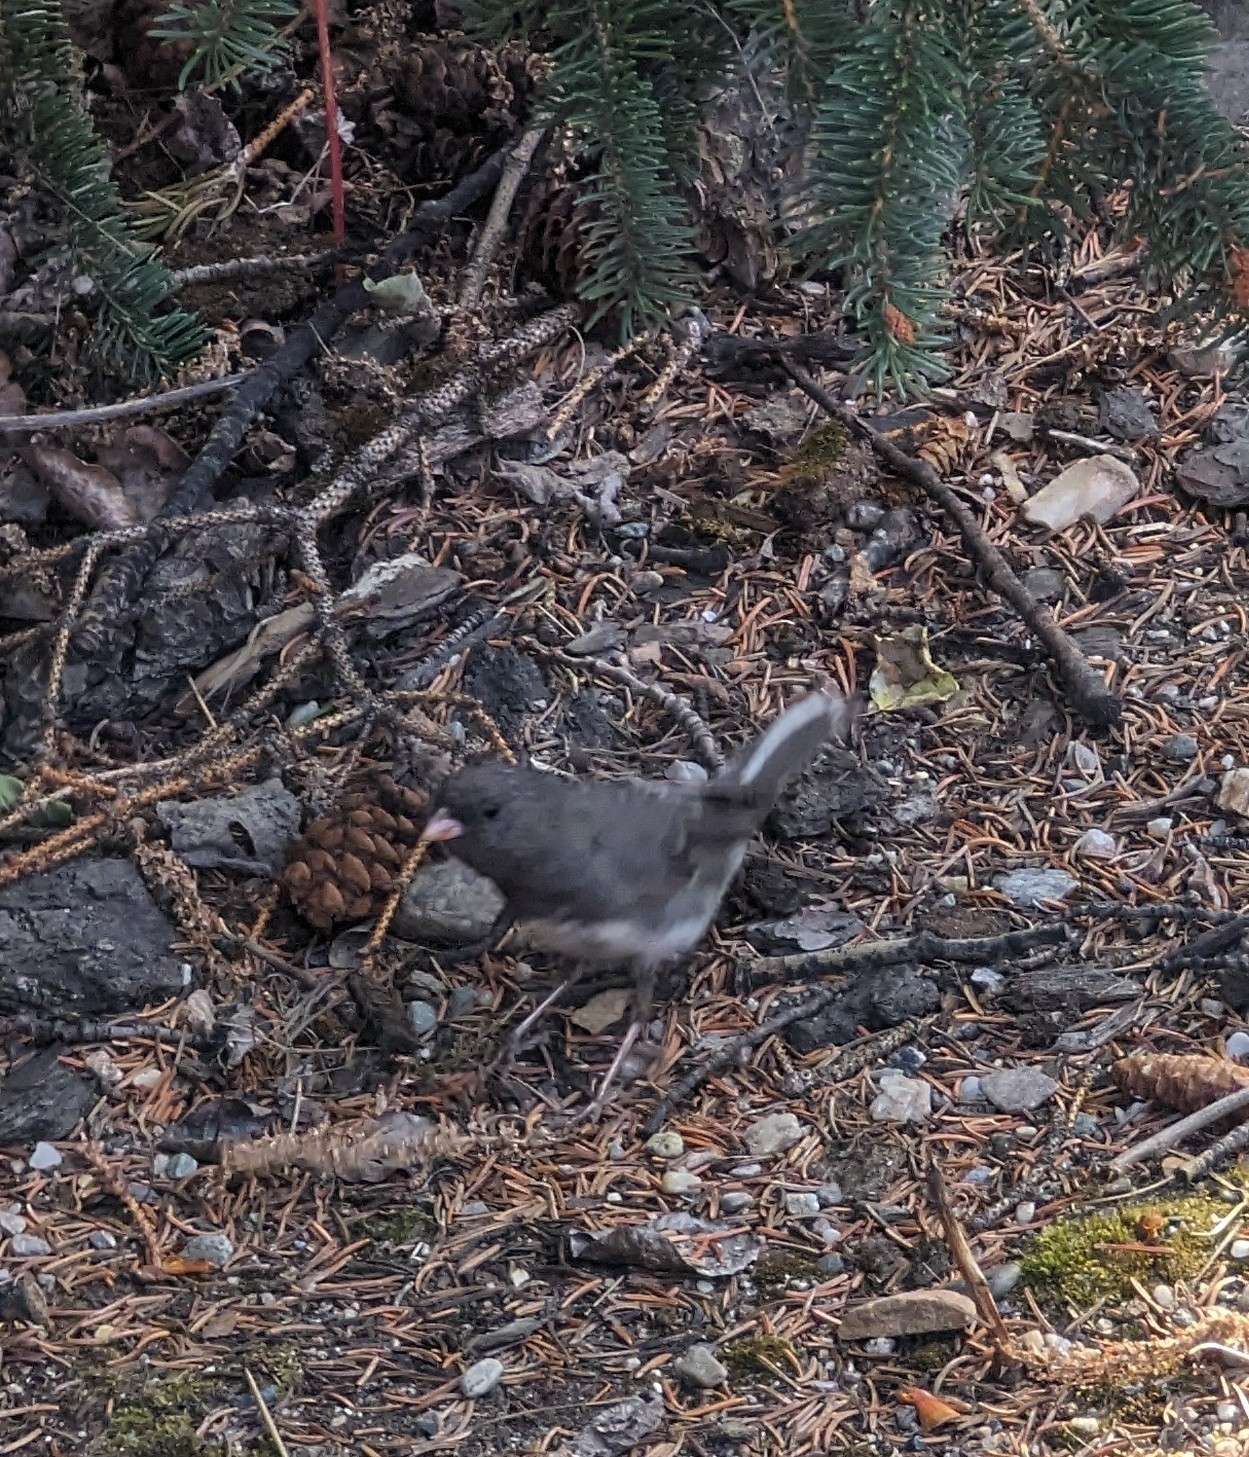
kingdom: Animalia
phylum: Chordata
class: Aves
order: Passeriformes
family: Passerellidae
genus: Junco
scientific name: Junco hyemalis
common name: Dark-eyed junco
